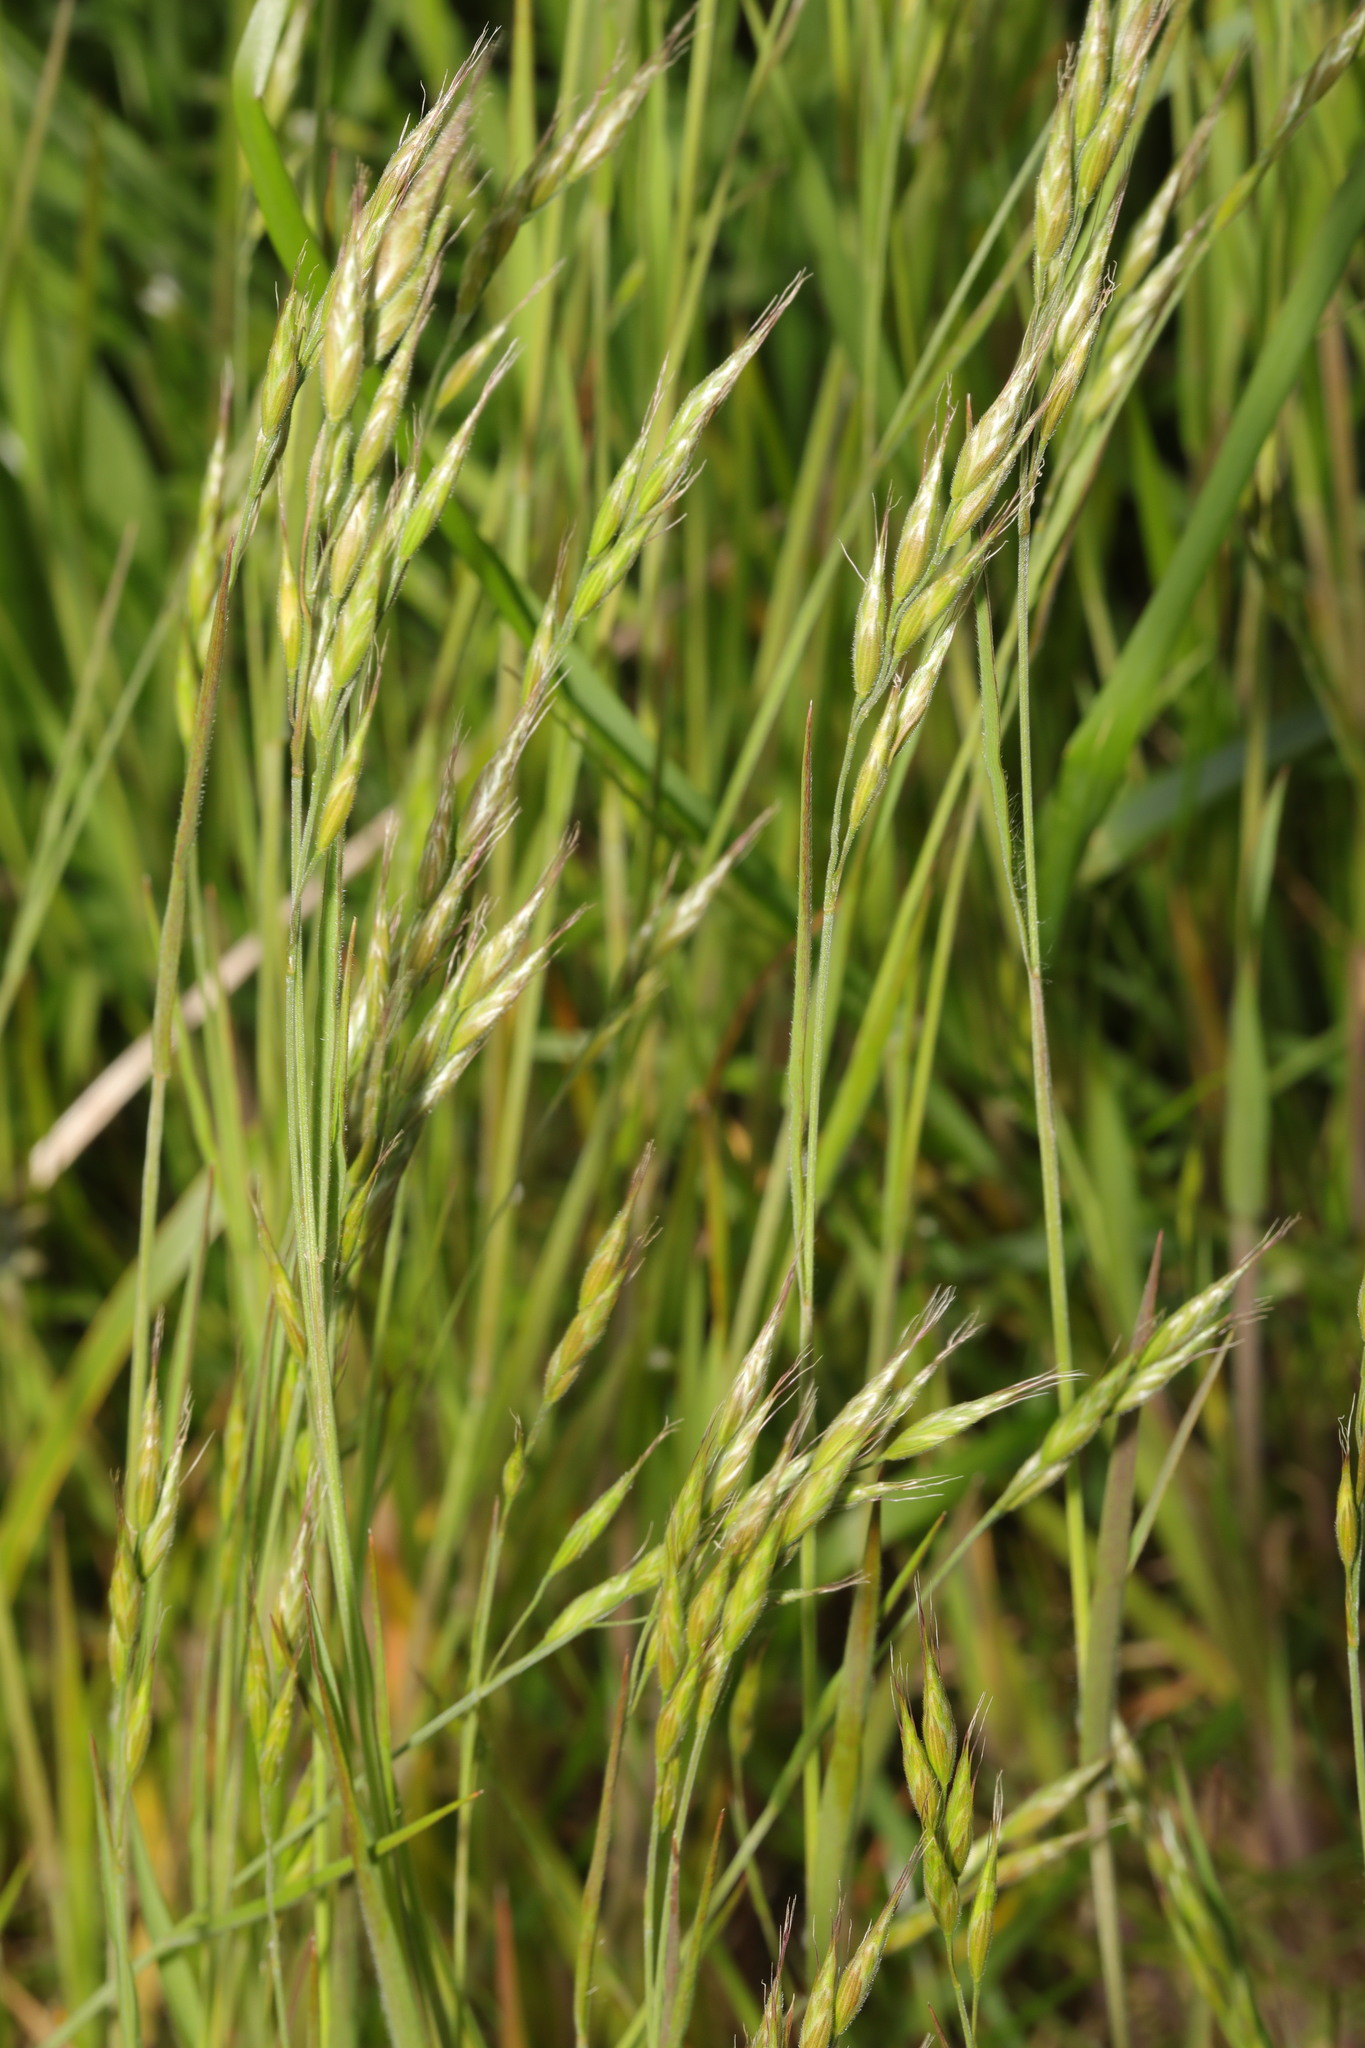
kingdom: Plantae
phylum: Tracheophyta
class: Liliopsida
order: Poales
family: Poaceae
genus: Bromus
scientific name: Bromus hordeaceus
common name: Soft brome
